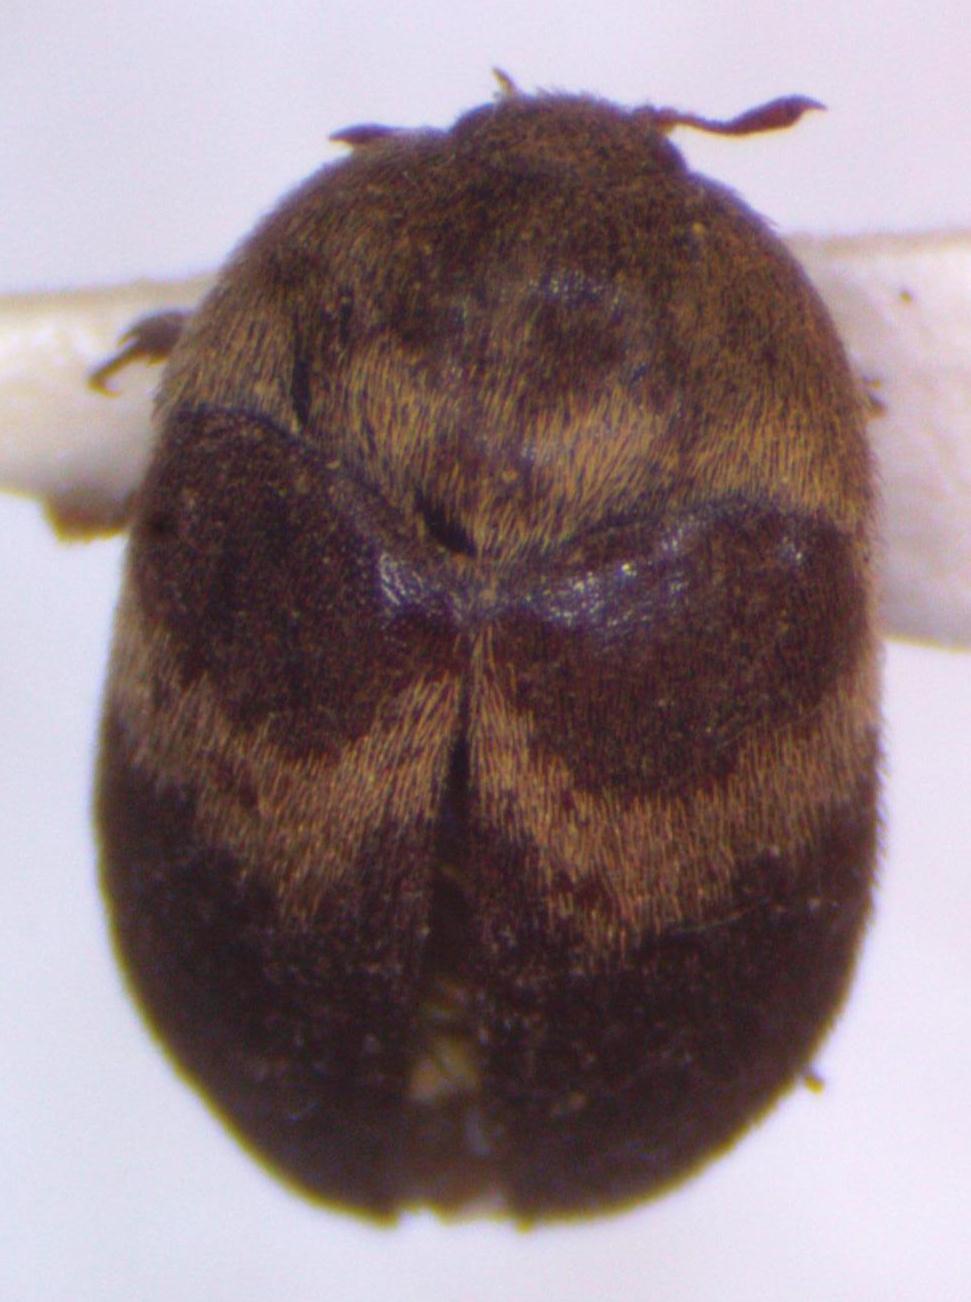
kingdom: Animalia
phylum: Arthropoda
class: Insecta
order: Coleoptera
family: Dermestidae
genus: Attagenus
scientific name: Attagenus fasciatus
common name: Wardrobe beetle
